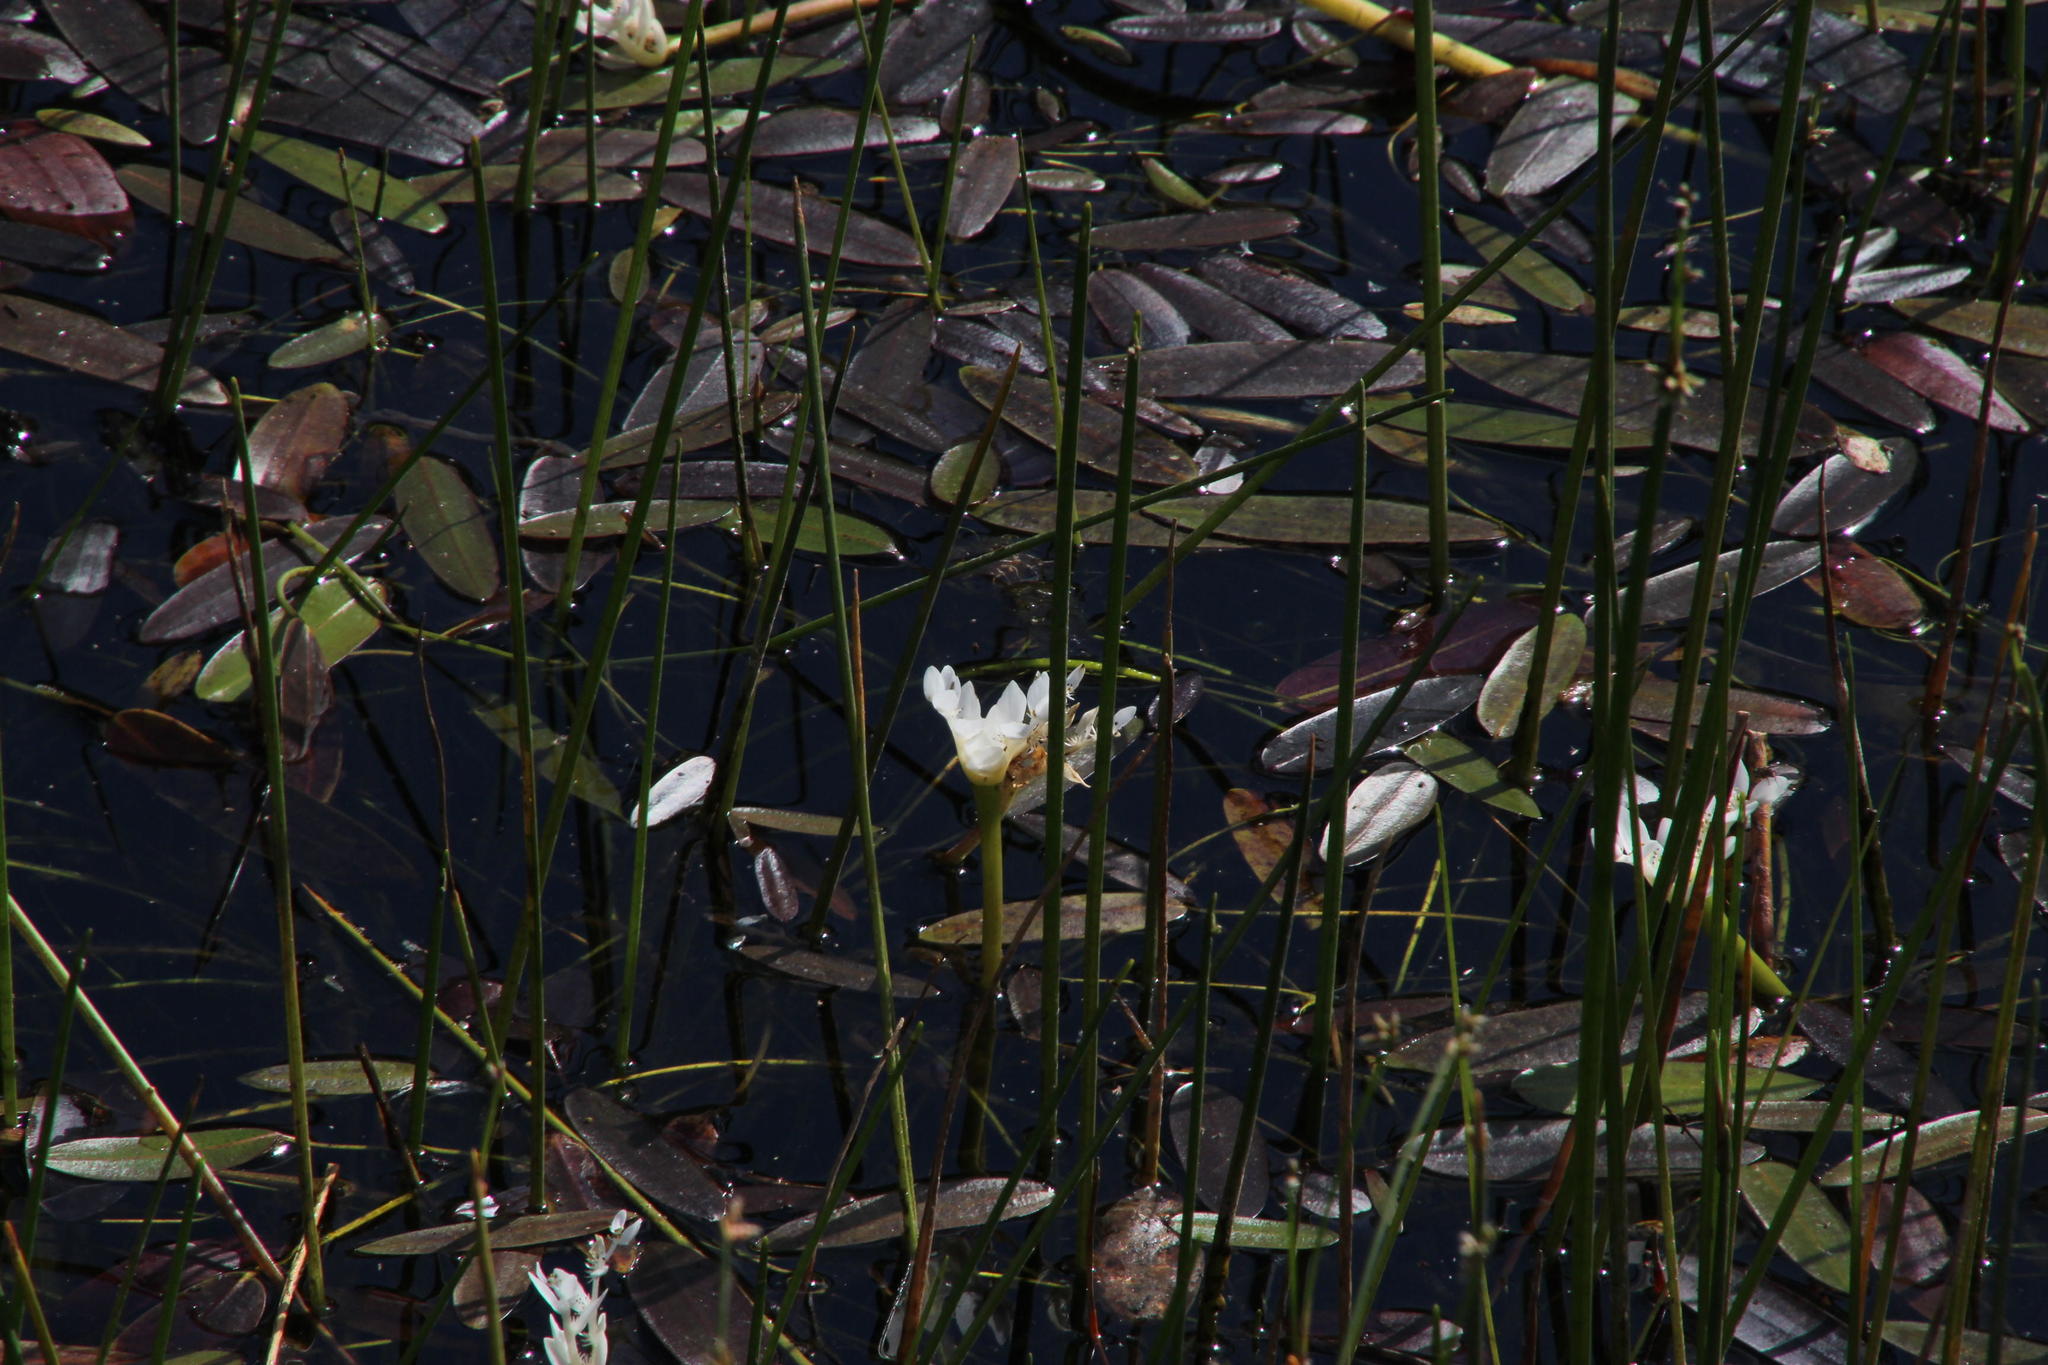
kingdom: Plantae
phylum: Tracheophyta
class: Liliopsida
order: Alismatales
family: Aponogetonaceae
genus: Aponogeton
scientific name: Aponogeton distachyos
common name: Cape-pondweed
